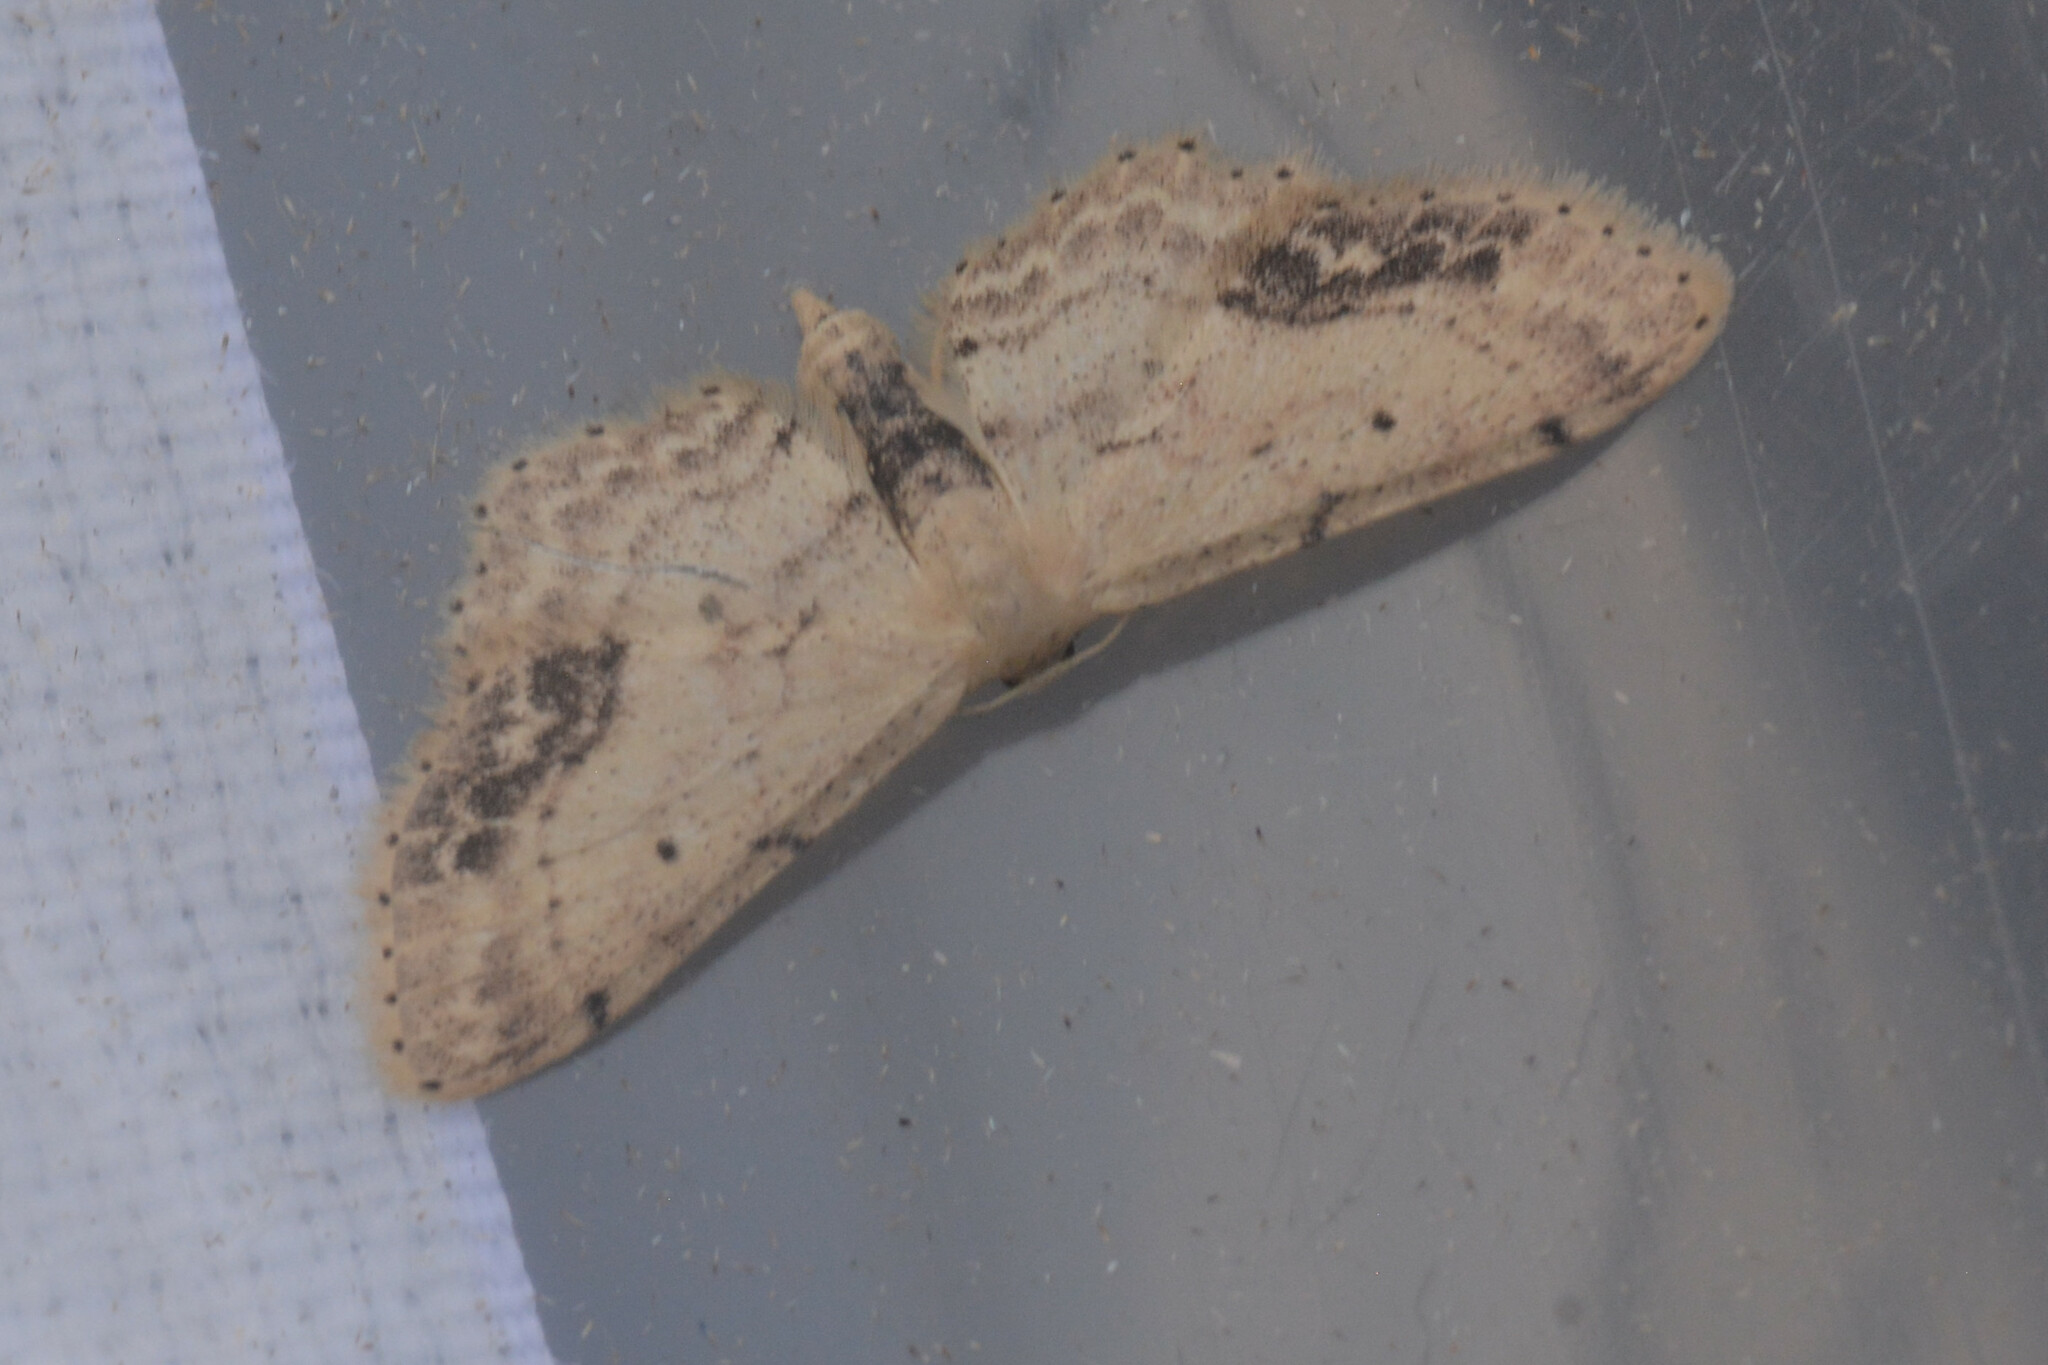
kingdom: Animalia
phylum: Arthropoda
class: Insecta
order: Lepidoptera
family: Geometridae
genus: Idaea
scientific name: Idaea dimidiata
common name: Single-dotted wave
